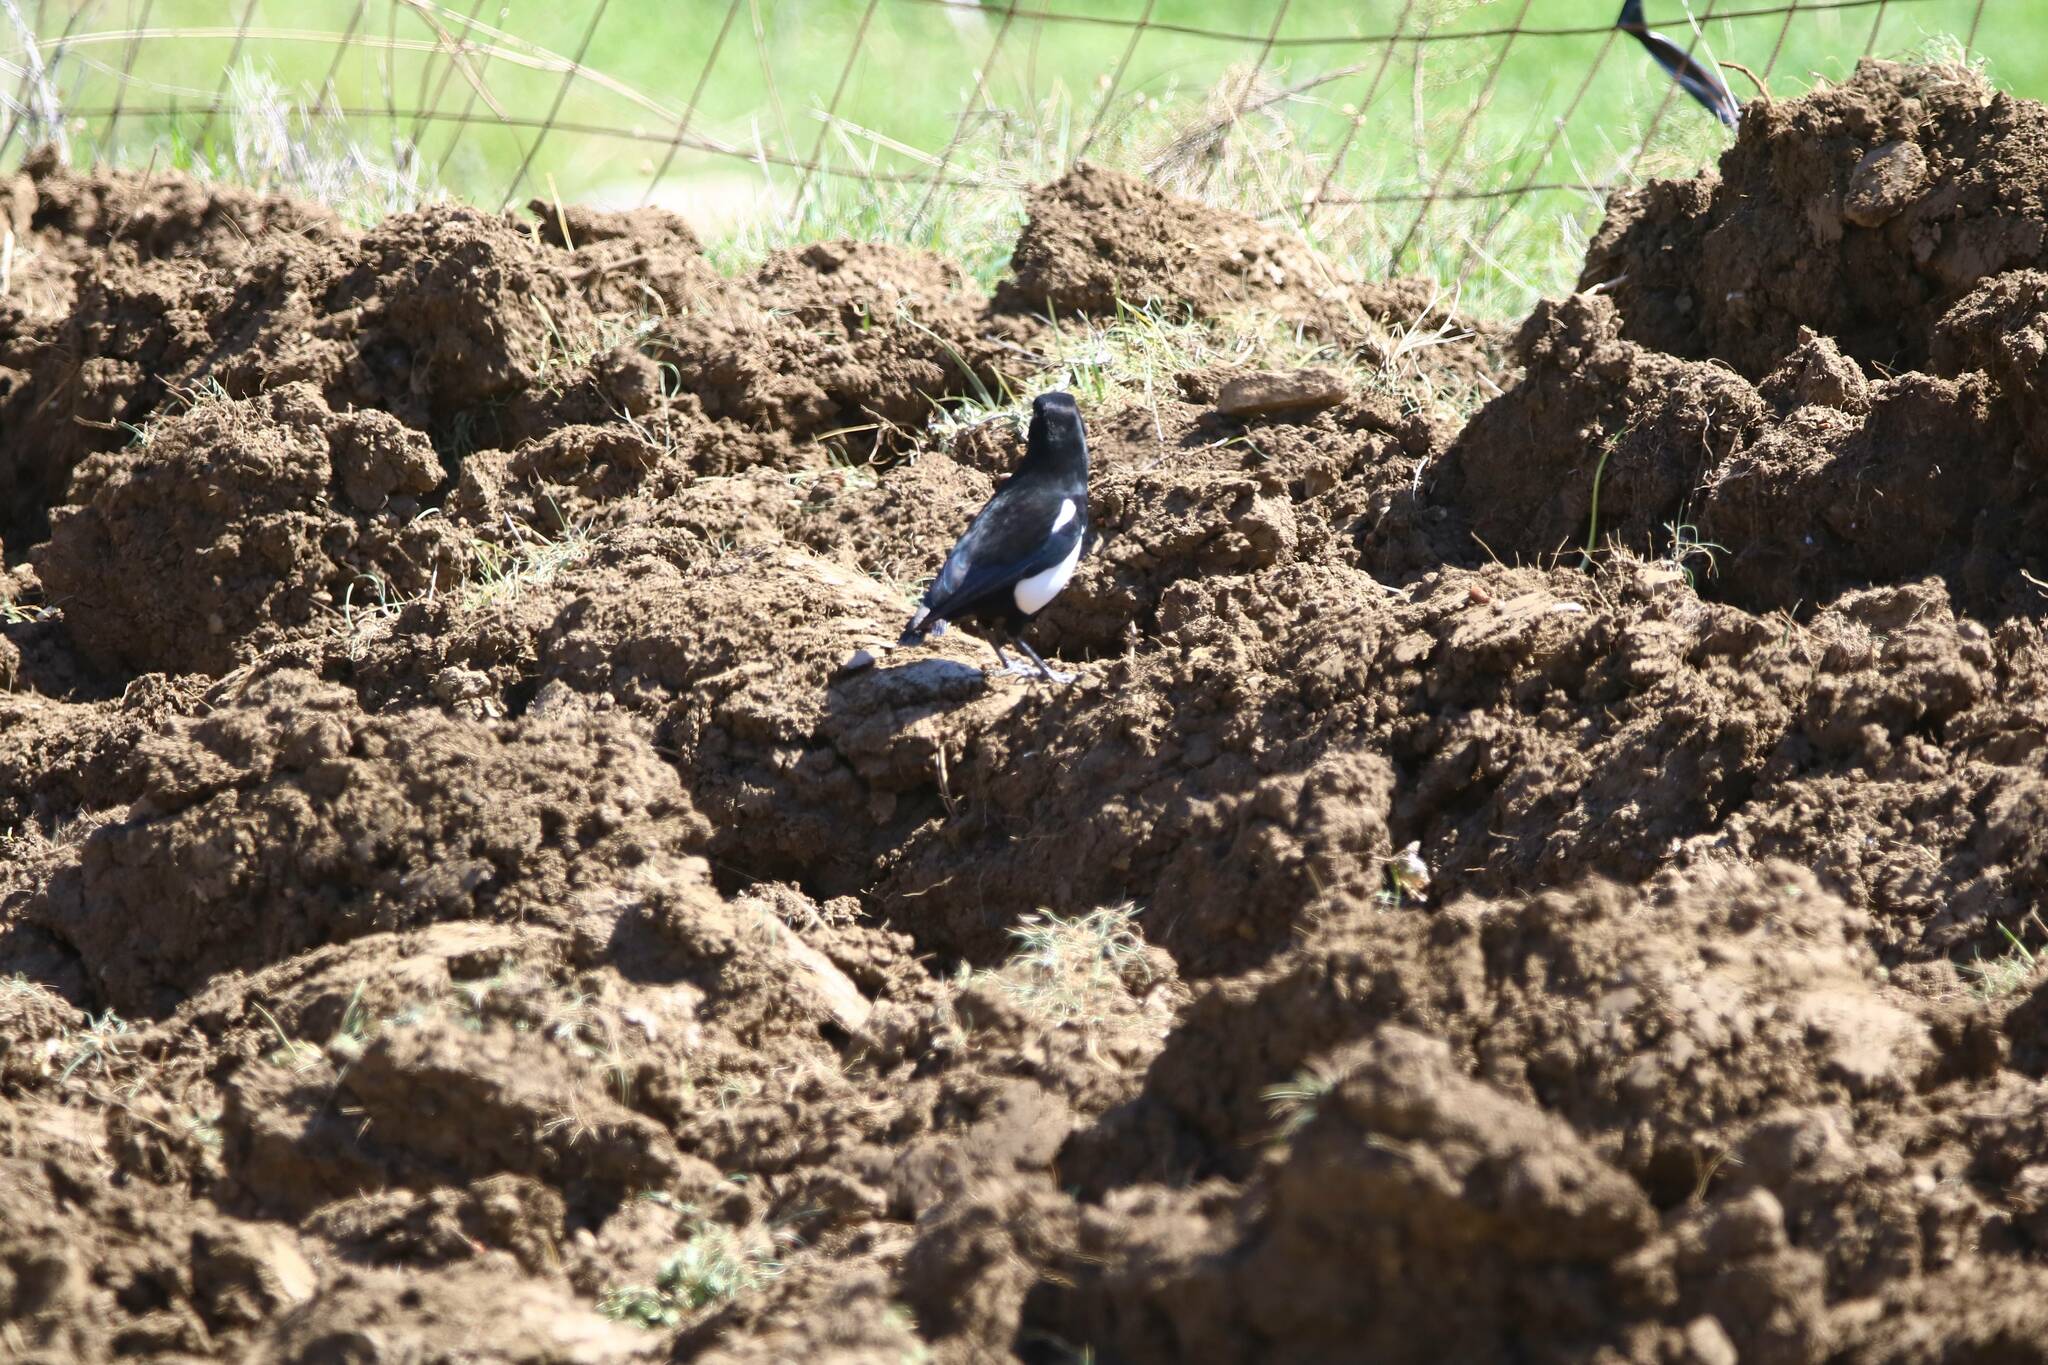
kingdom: Animalia
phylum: Chordata
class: Aves
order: Passeriformes
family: Corvidae
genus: Pica
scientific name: Pica mauritanica
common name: Maghreb magpie
